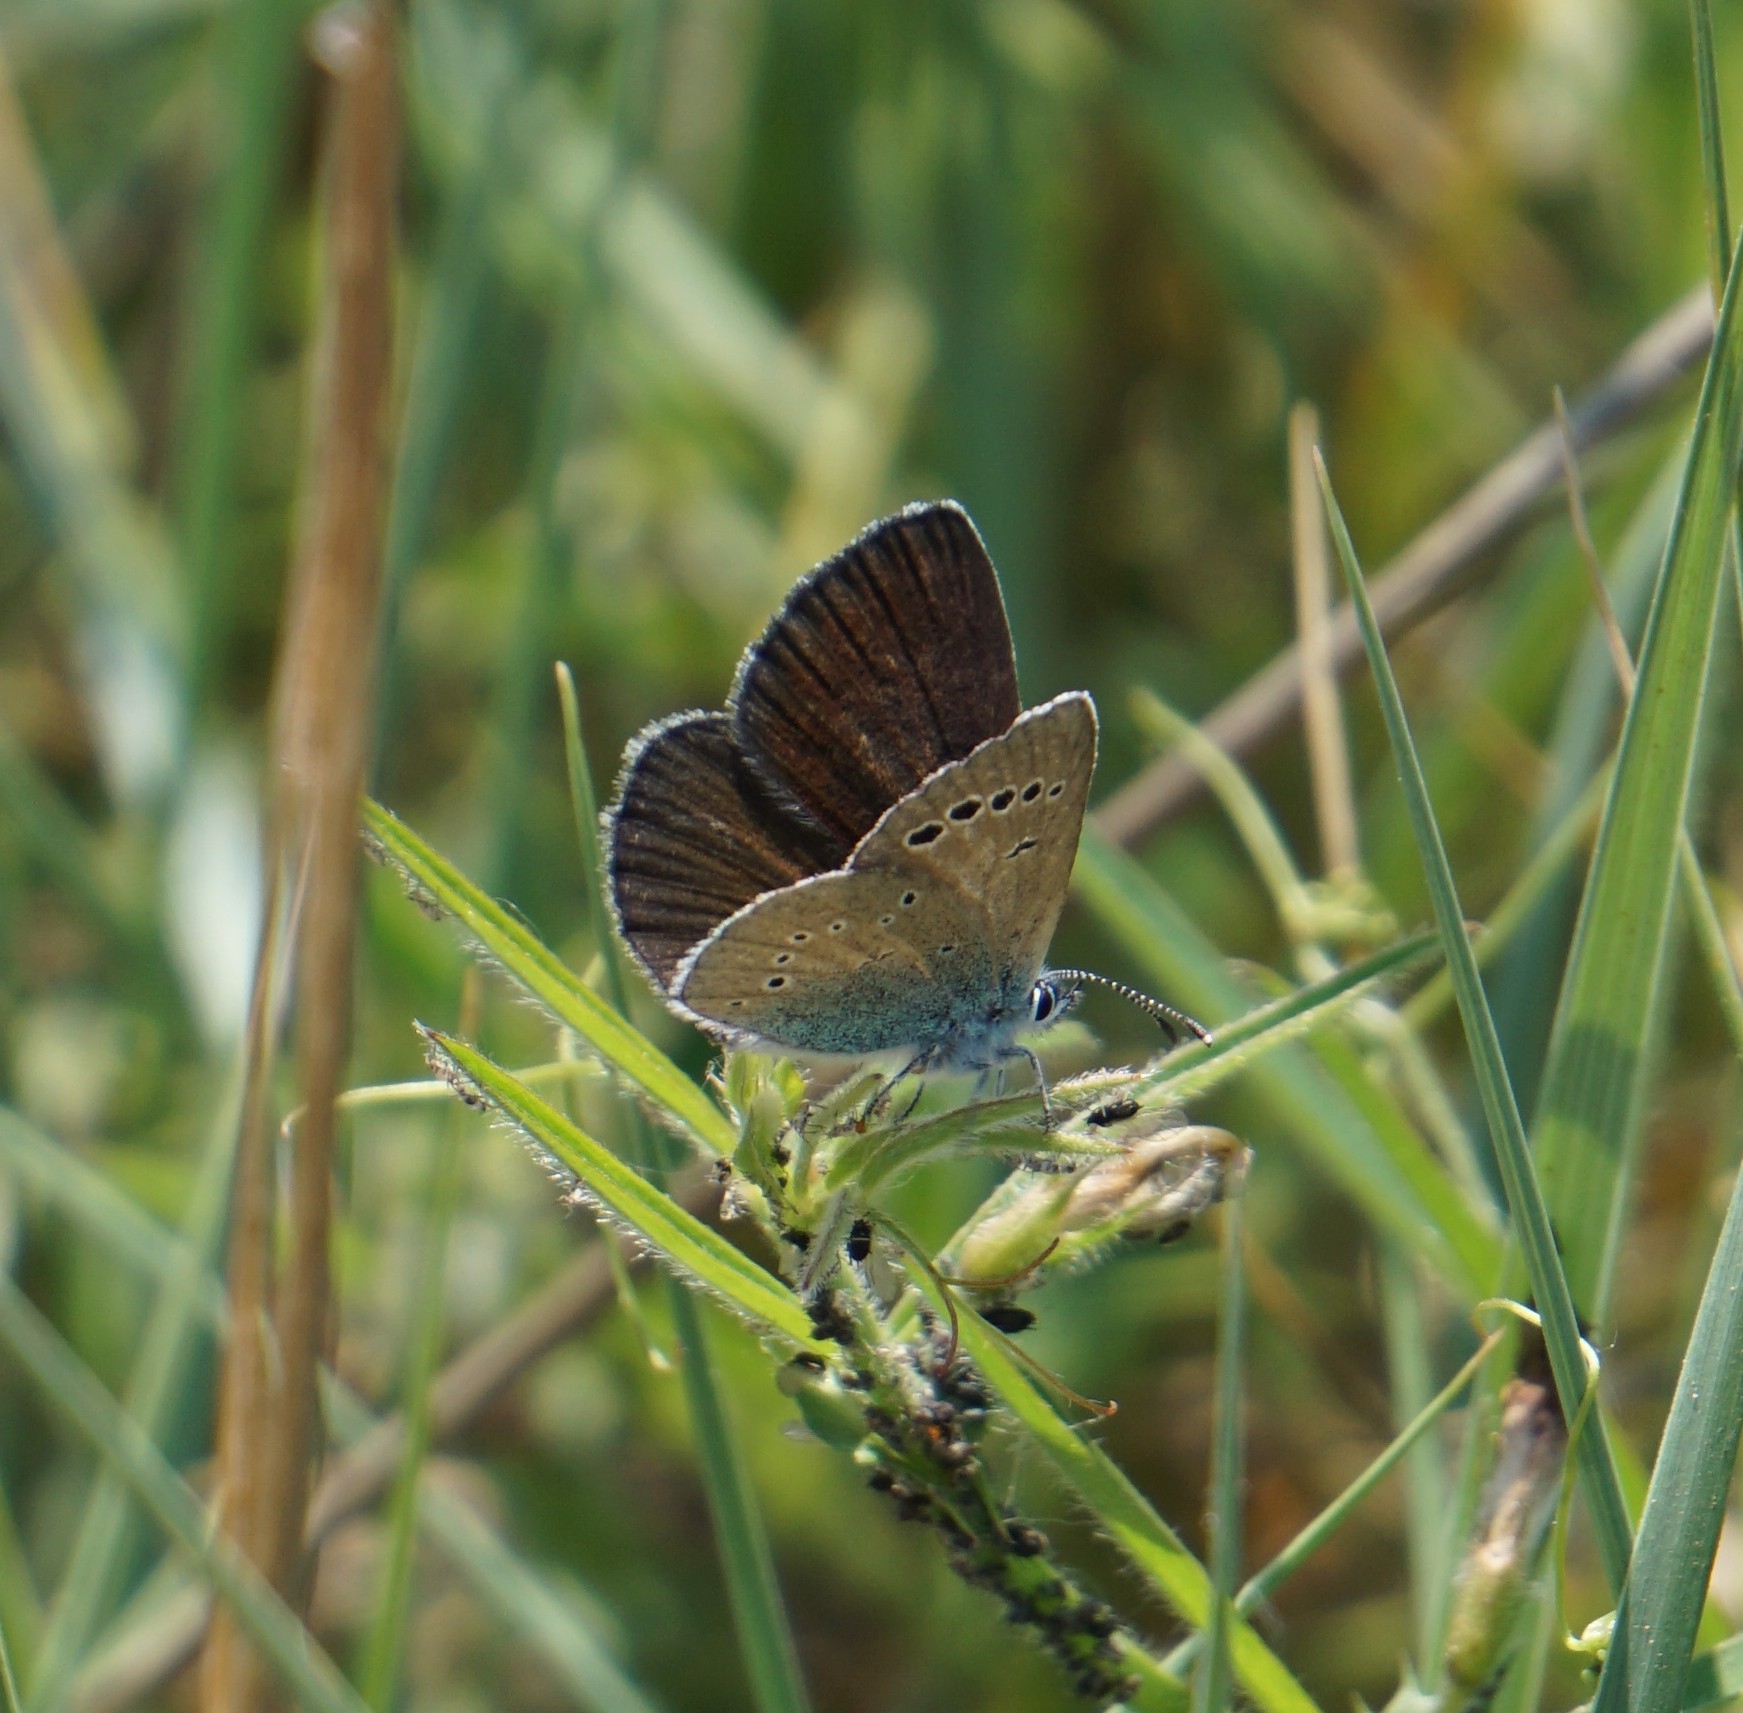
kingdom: Animalia
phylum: Arthropoda
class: Insecta
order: Lepidoptera
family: Lycaenidae
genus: Glaucopsyche
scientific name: Glaucopsyche alexis
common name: Green-underside blue
